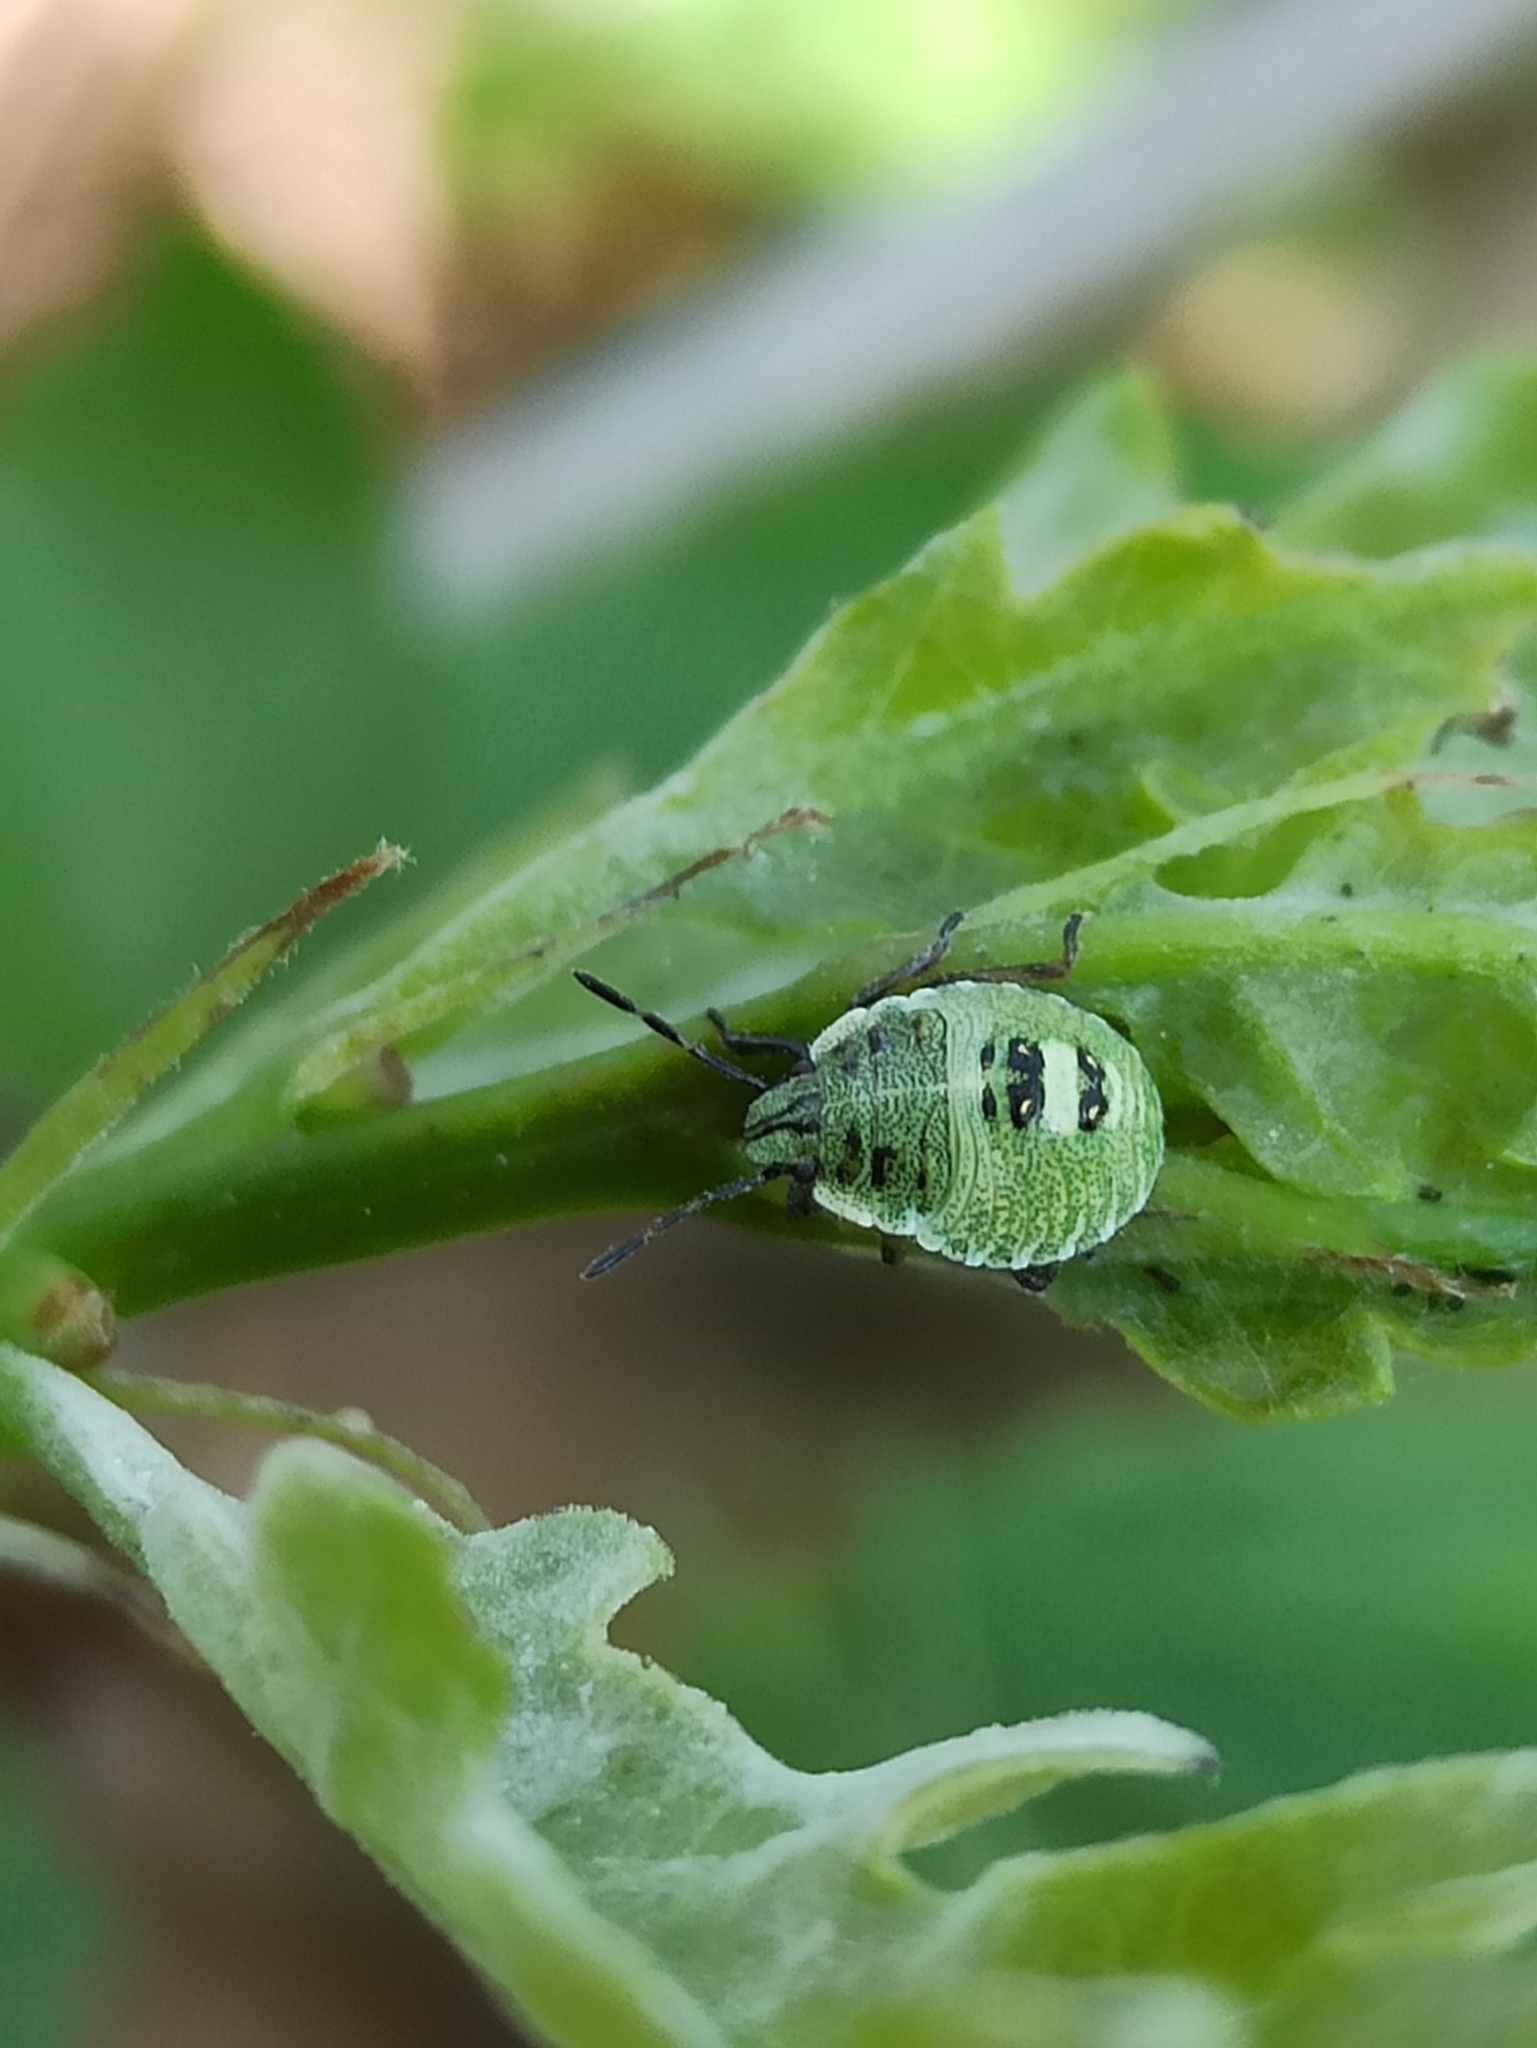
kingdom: Animalia
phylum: Arthropoda
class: Insecta
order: Hemiptera
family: Pentatomidae
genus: Palomena
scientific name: Palomena prasina
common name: Green shieldbug
